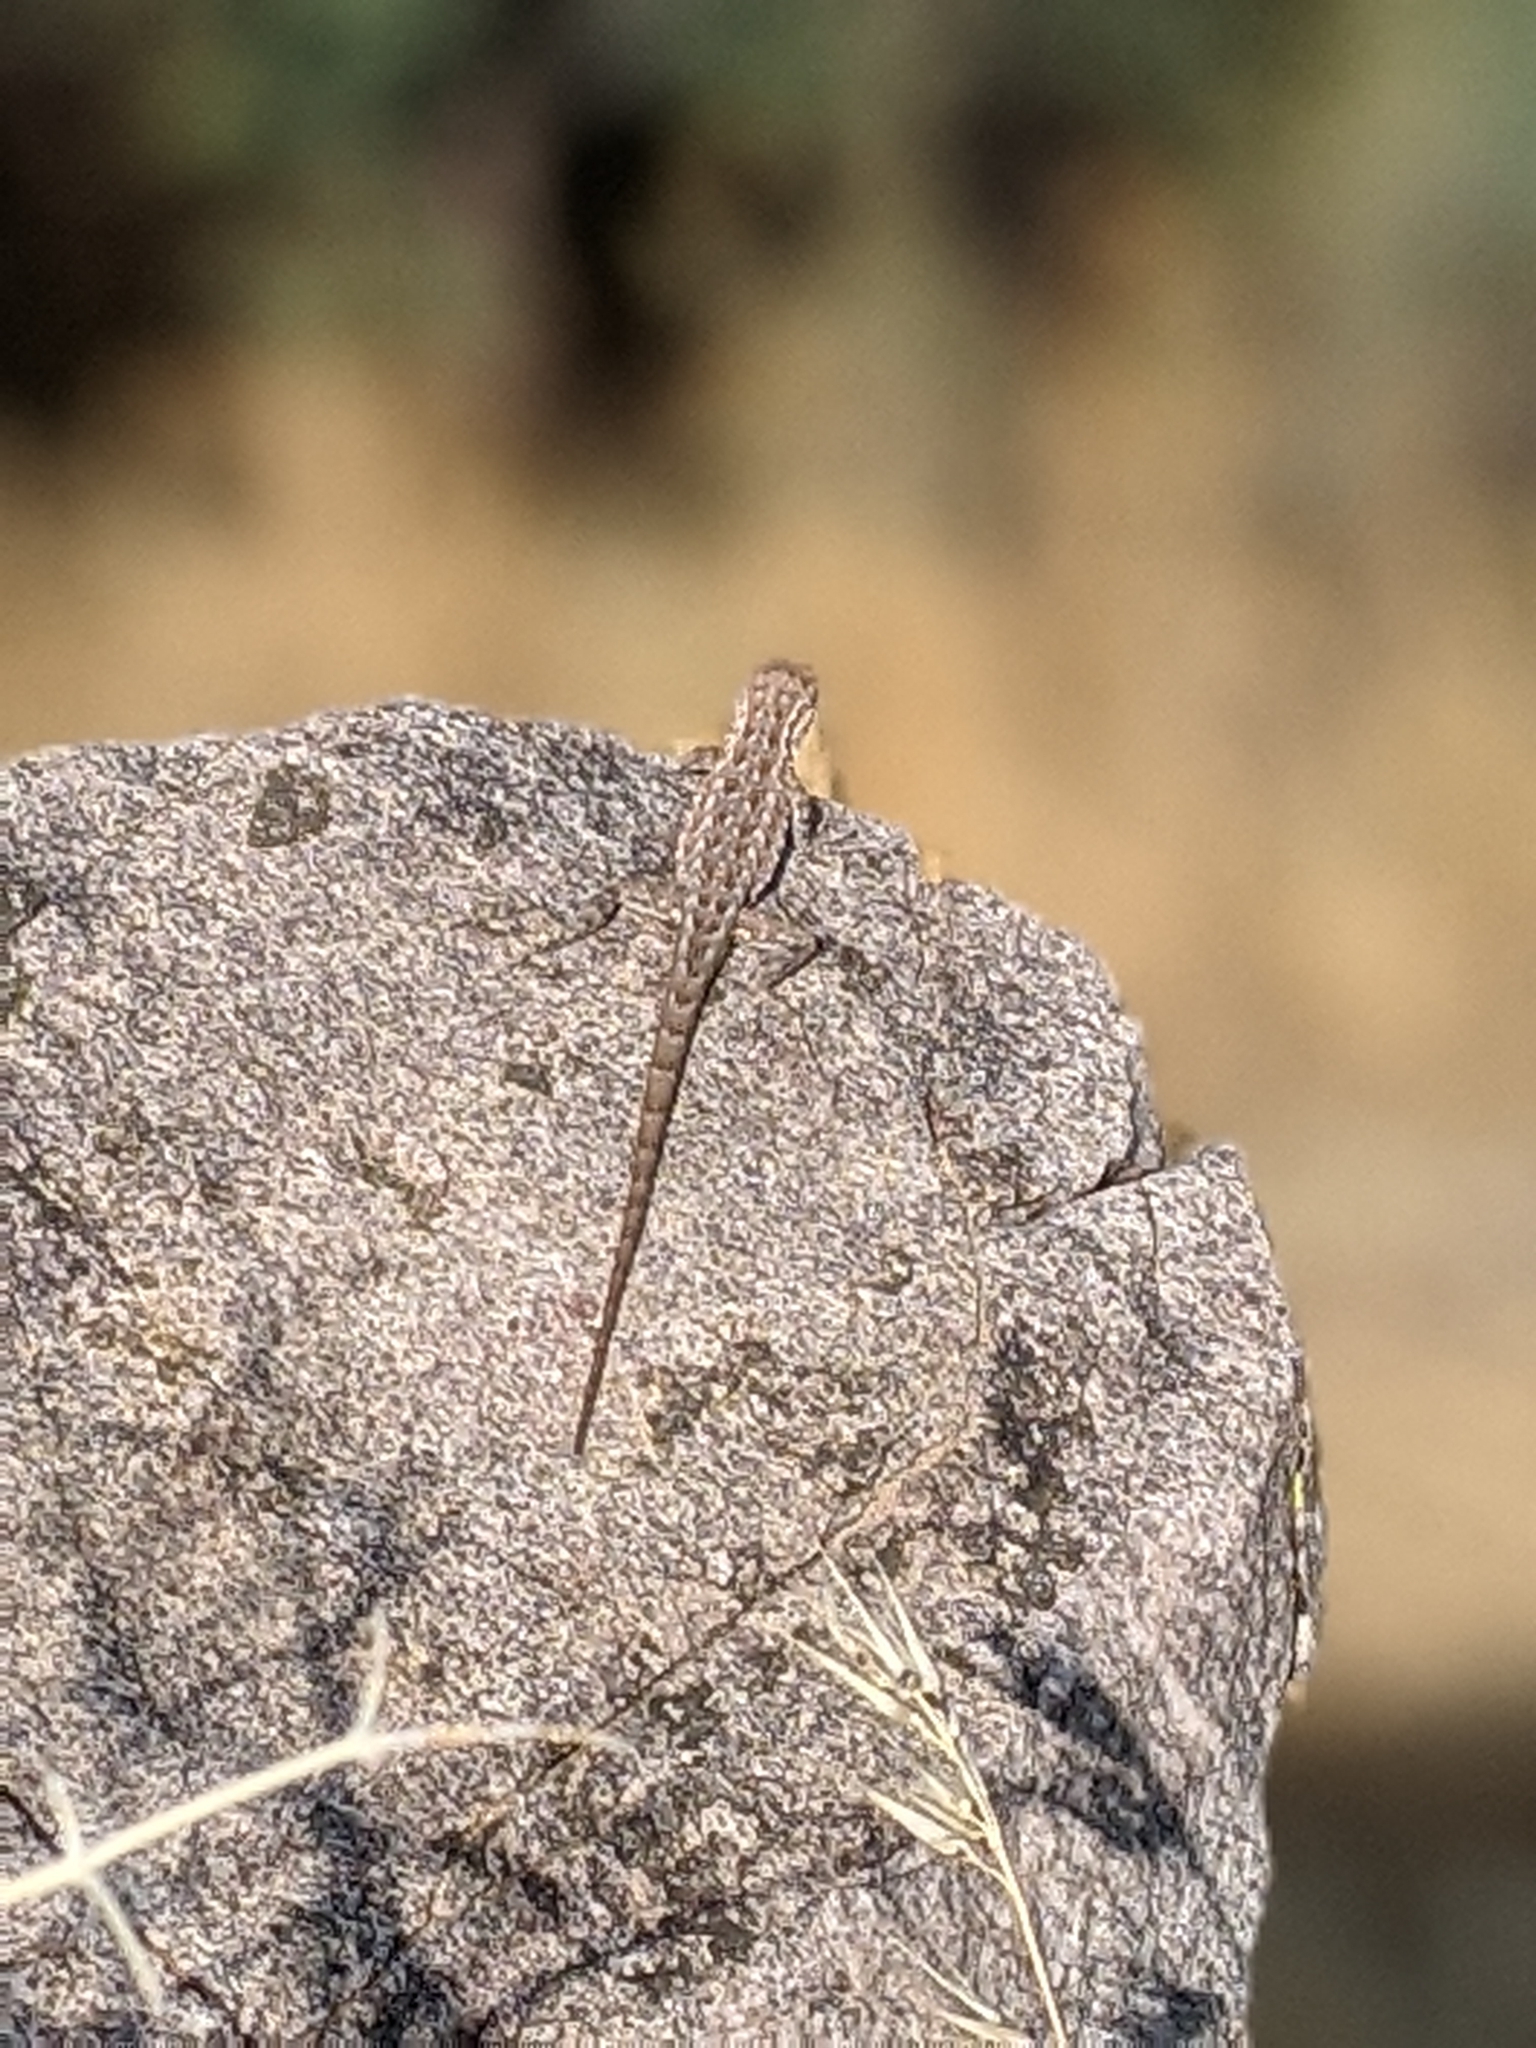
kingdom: Animalia
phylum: Chordata
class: Squamata
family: Phrynosomatidae
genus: Uta
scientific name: Uta stansburiana
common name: Side-blotched lizard
